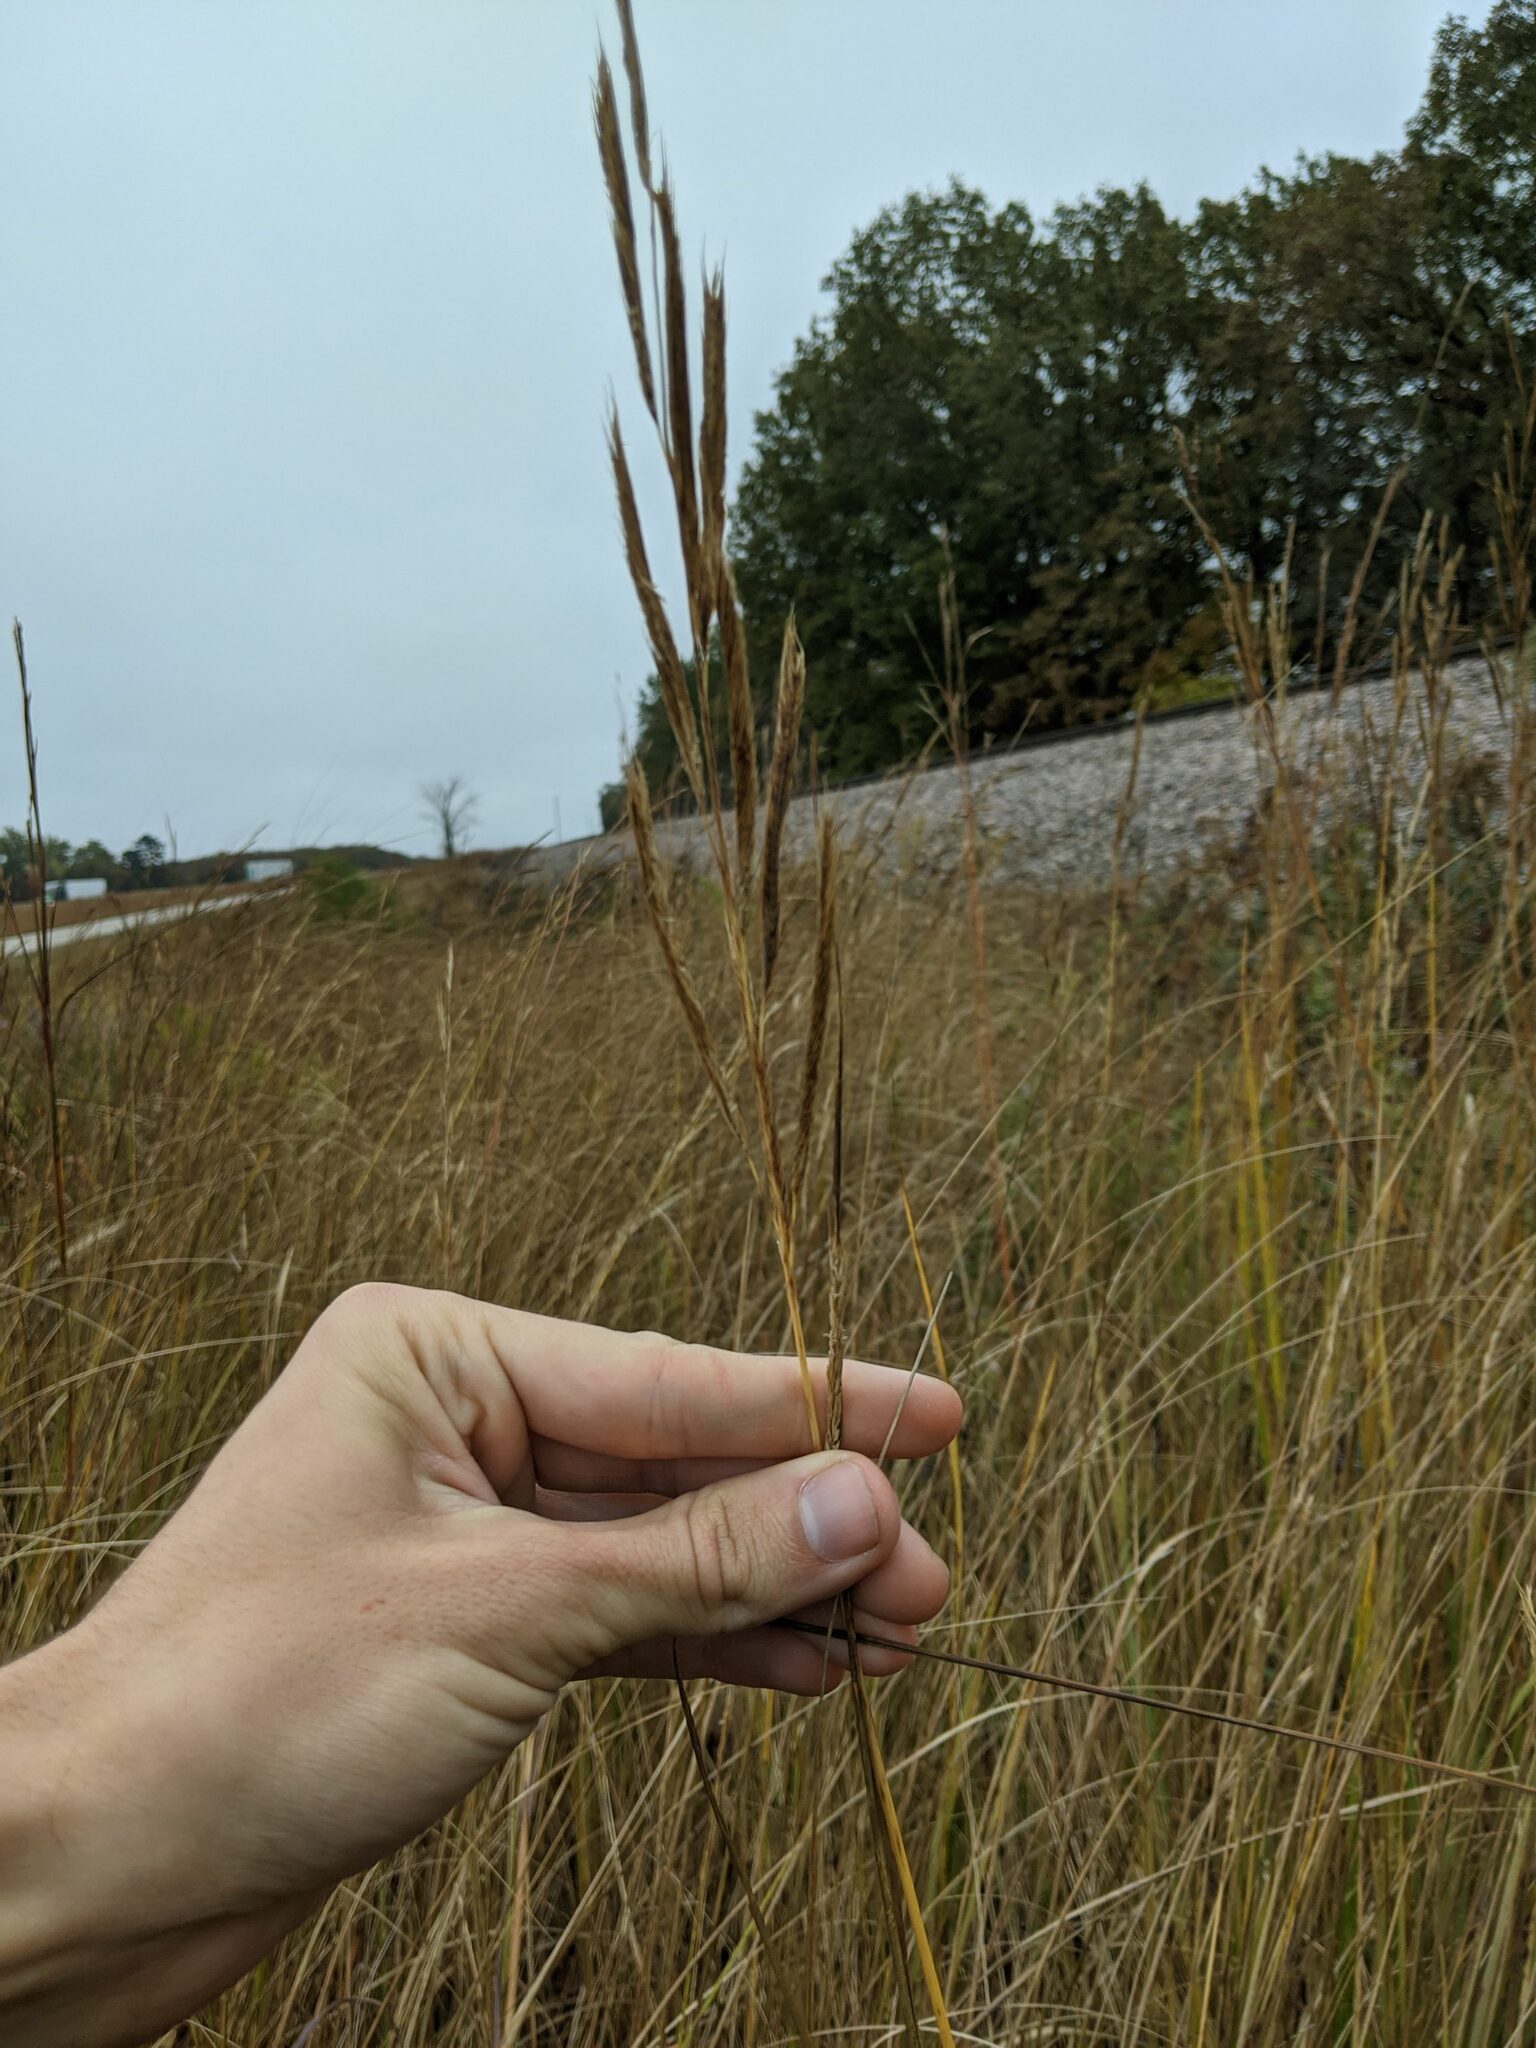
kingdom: Plantae
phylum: Tracheophyta
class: Liliopsida
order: Poales
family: Poaceae
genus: Sporobolus
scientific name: Sporobolus michauxianus
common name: Freshwater cordgrass
